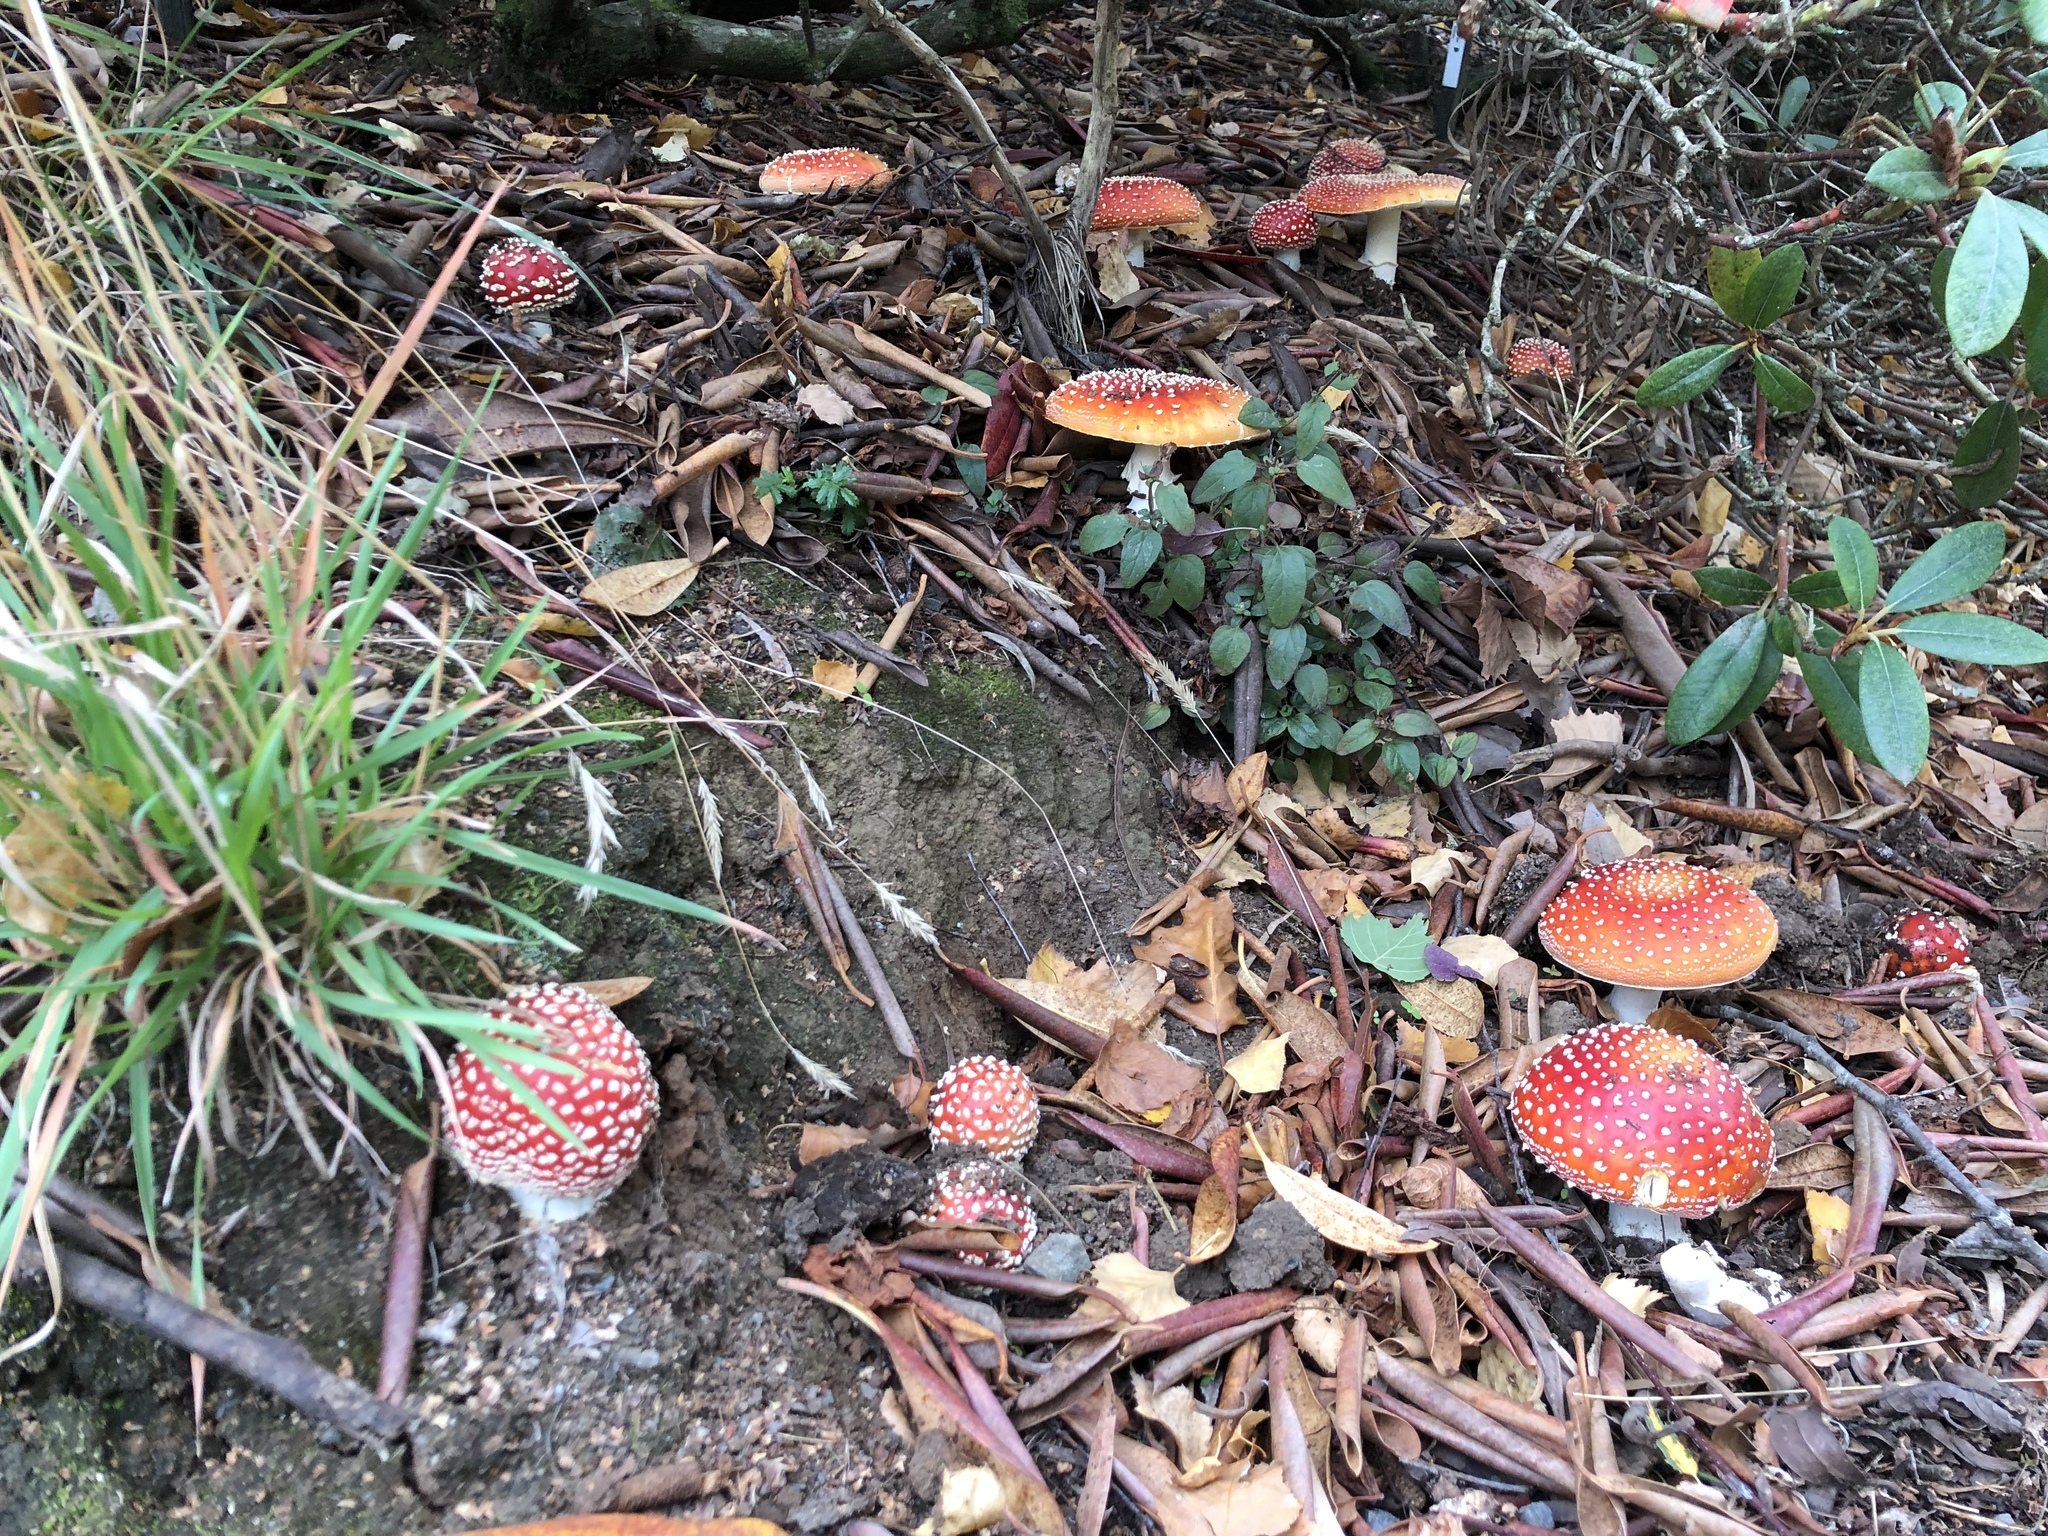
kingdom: Fungi
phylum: Basidiomycota
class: Agaricomycetes
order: Agaricales
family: Amanitaceae
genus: Amanita
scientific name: Amanita muscaria
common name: Fly agaric
